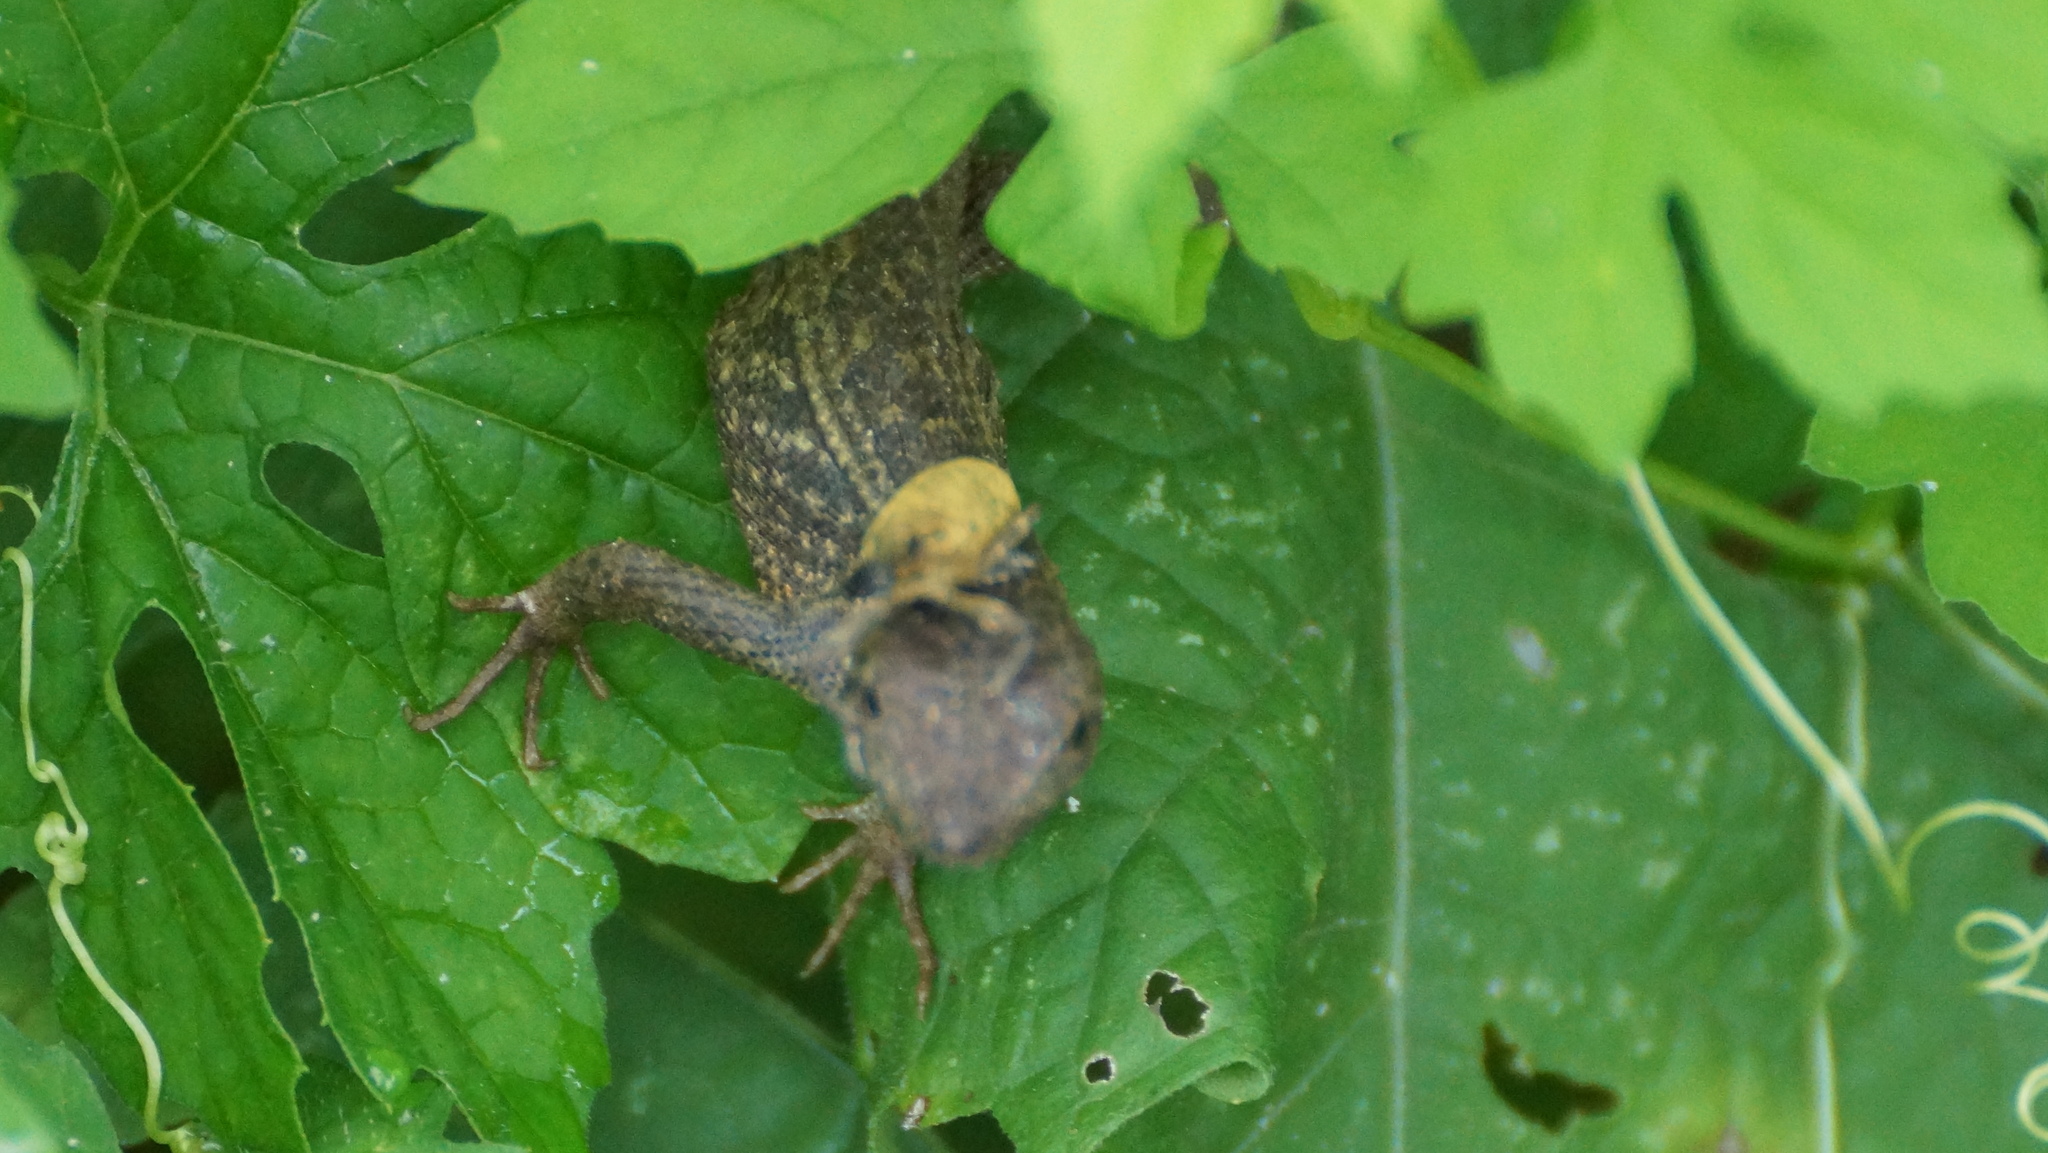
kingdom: Animalia
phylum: Chordata
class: Squamata
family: Phrynosomatidae
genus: Sceloporus
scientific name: Sceloporus melanorhinus
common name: Black-nosed lizard
